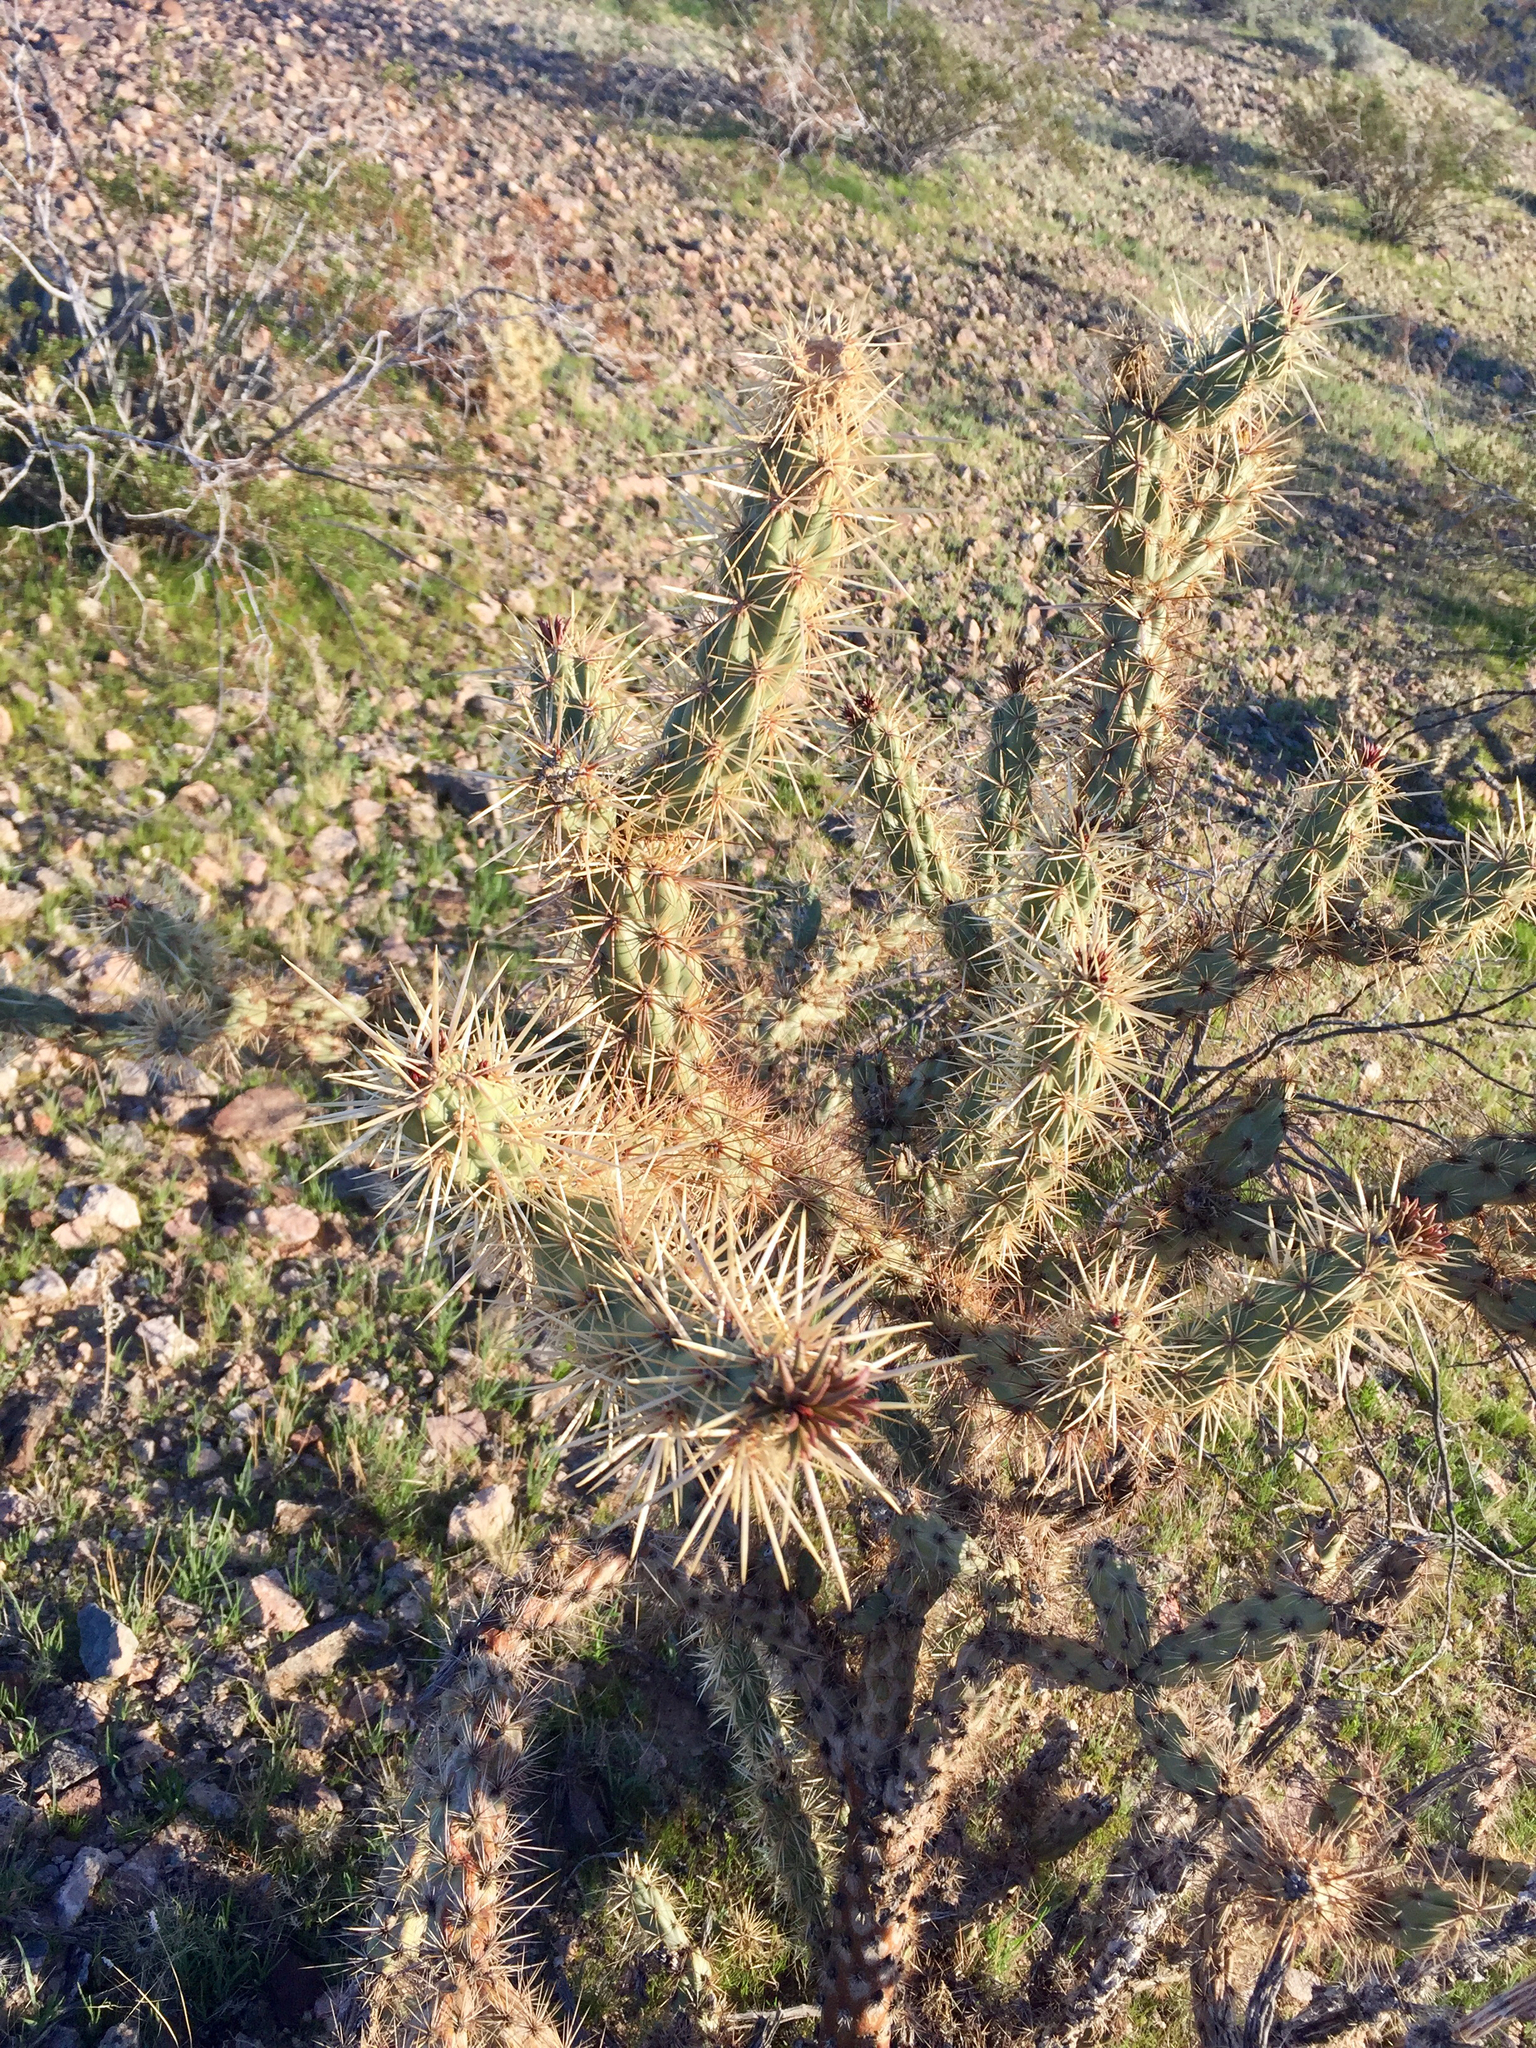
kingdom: Plantae
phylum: Tracheophyta
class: Magnoliopsida
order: Caryophyllales
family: Cactaceae
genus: Cylindropuntia
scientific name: Cylindropuntia acanthocarpa
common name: Buckhorn cholla
